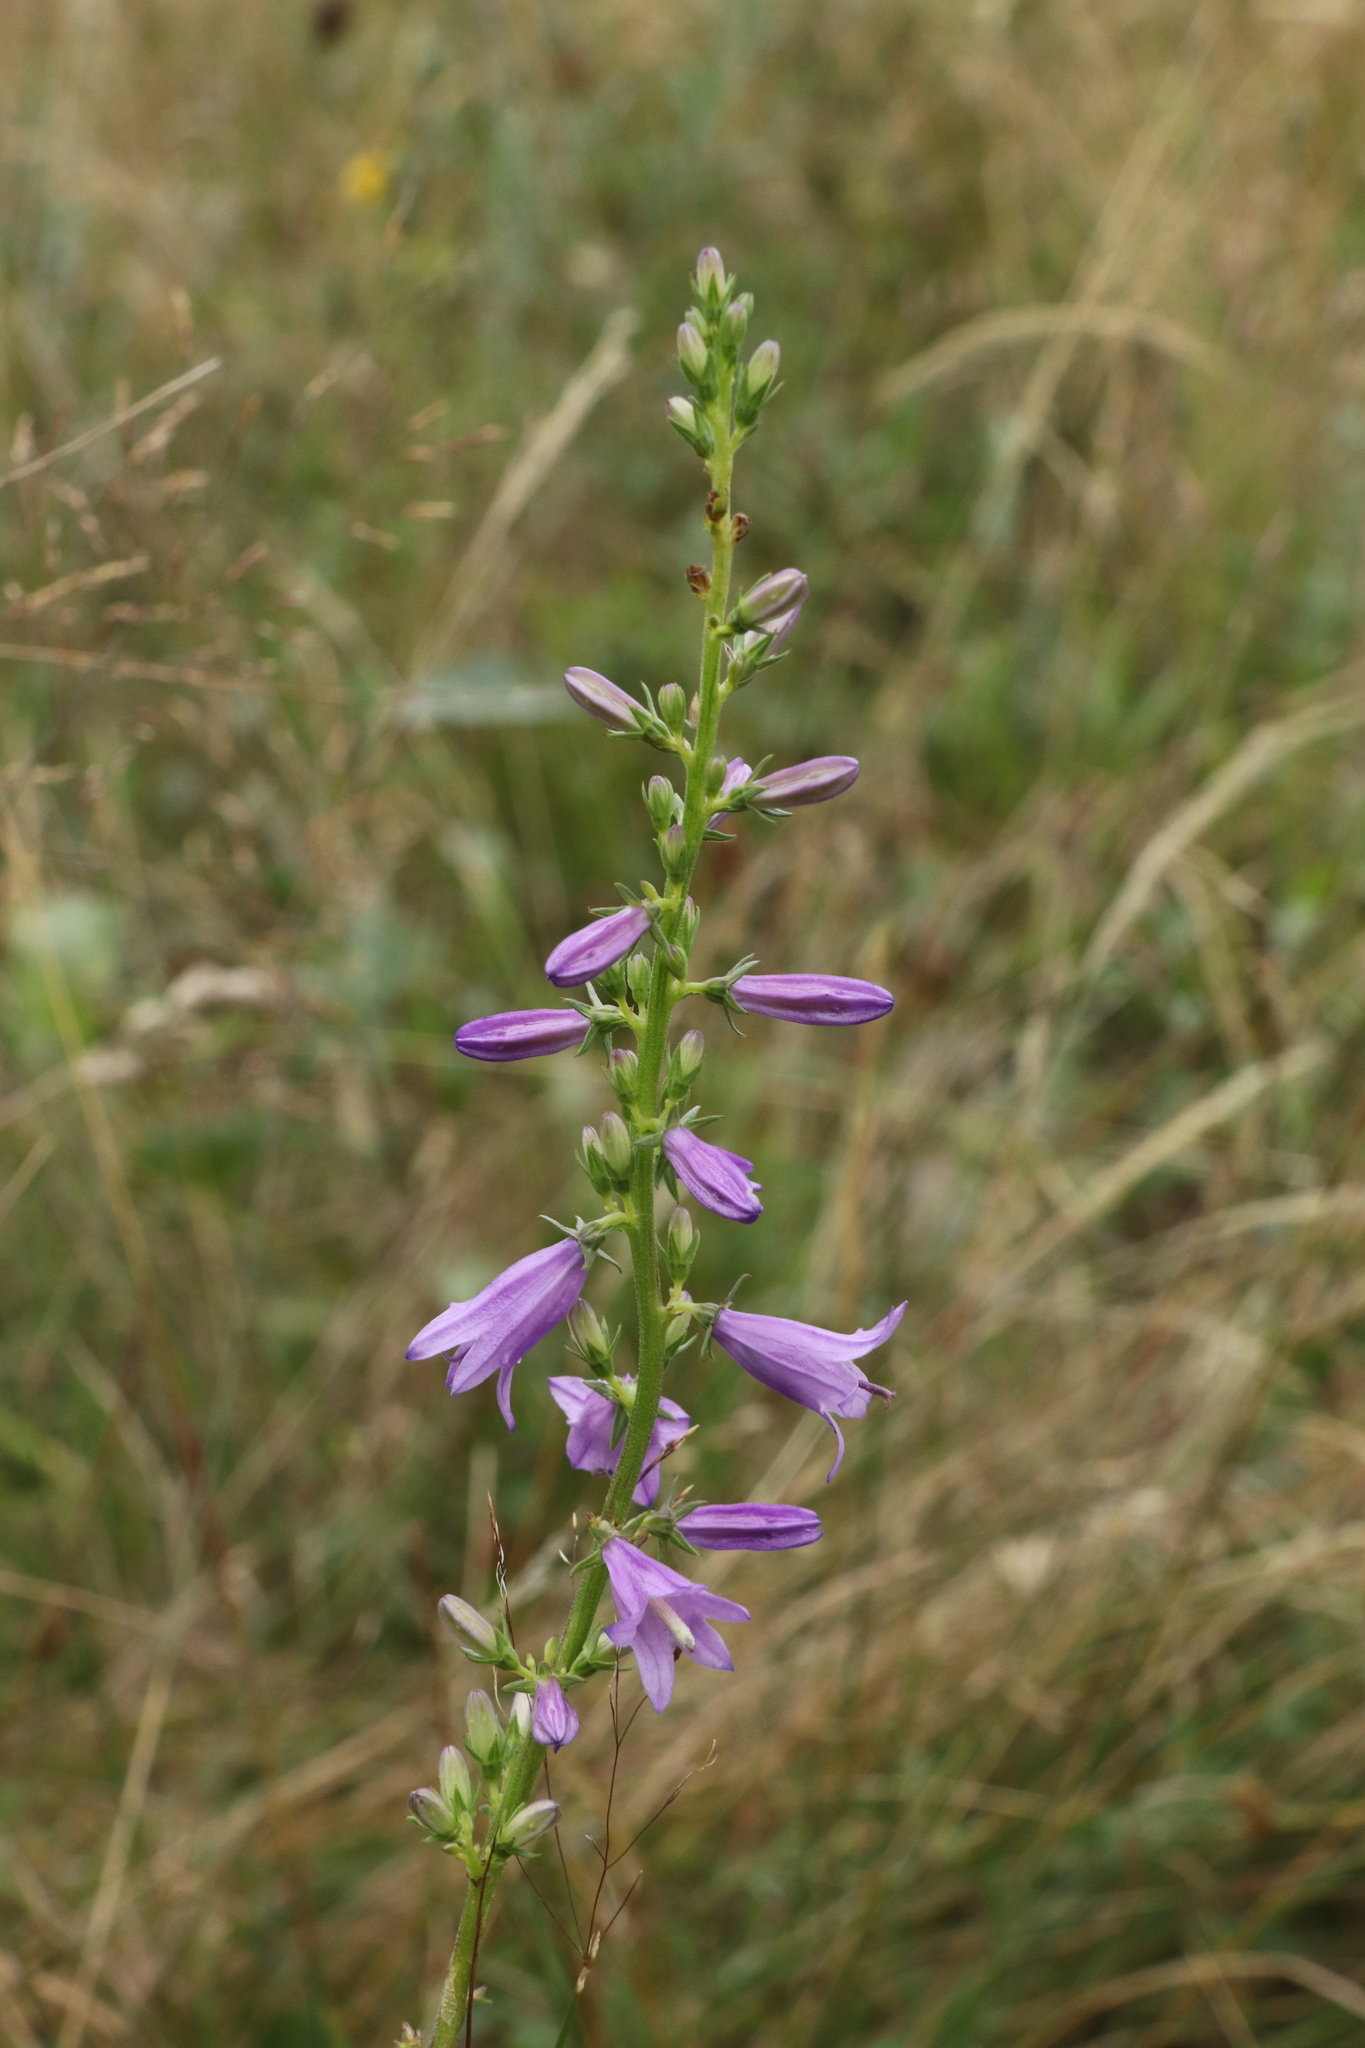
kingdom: Plantae
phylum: Tracheophyta
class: Magnoliopsida
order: Asterales
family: Campanulaceae
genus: Campanula
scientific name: Campanula bononiensis
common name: Pale bellflower
